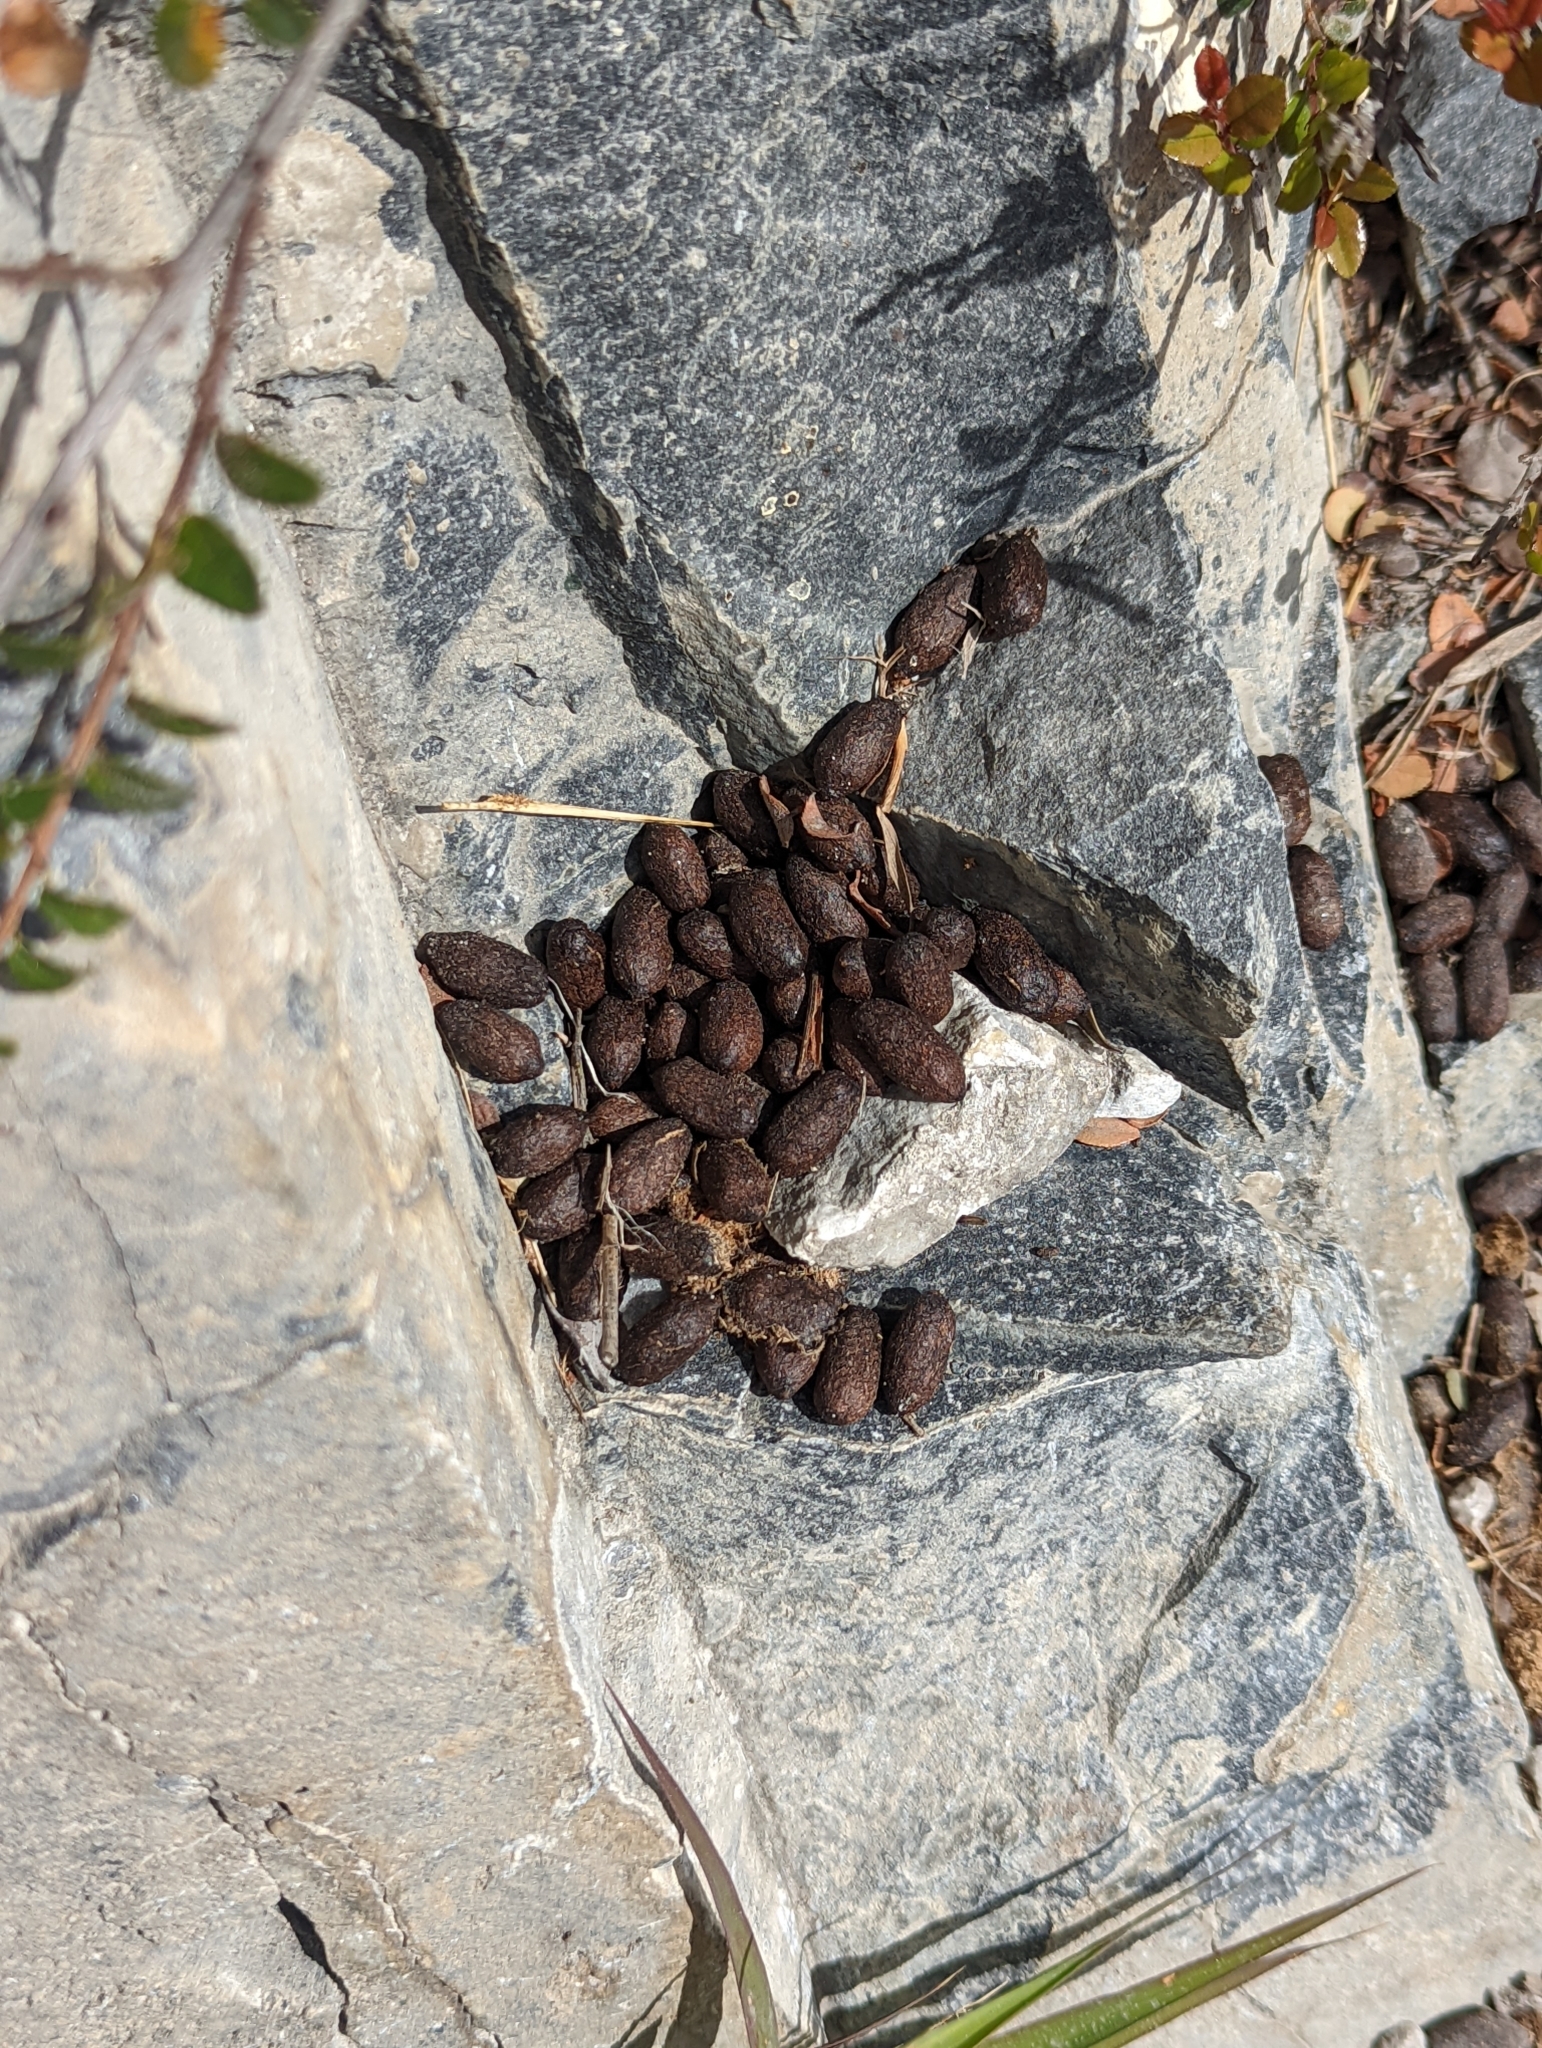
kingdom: Animalia
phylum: Chordata
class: Mammalia
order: Artiodactyla
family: Bovidae
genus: Capricornis
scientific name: Capricornis swinhoei
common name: Formosan serow
